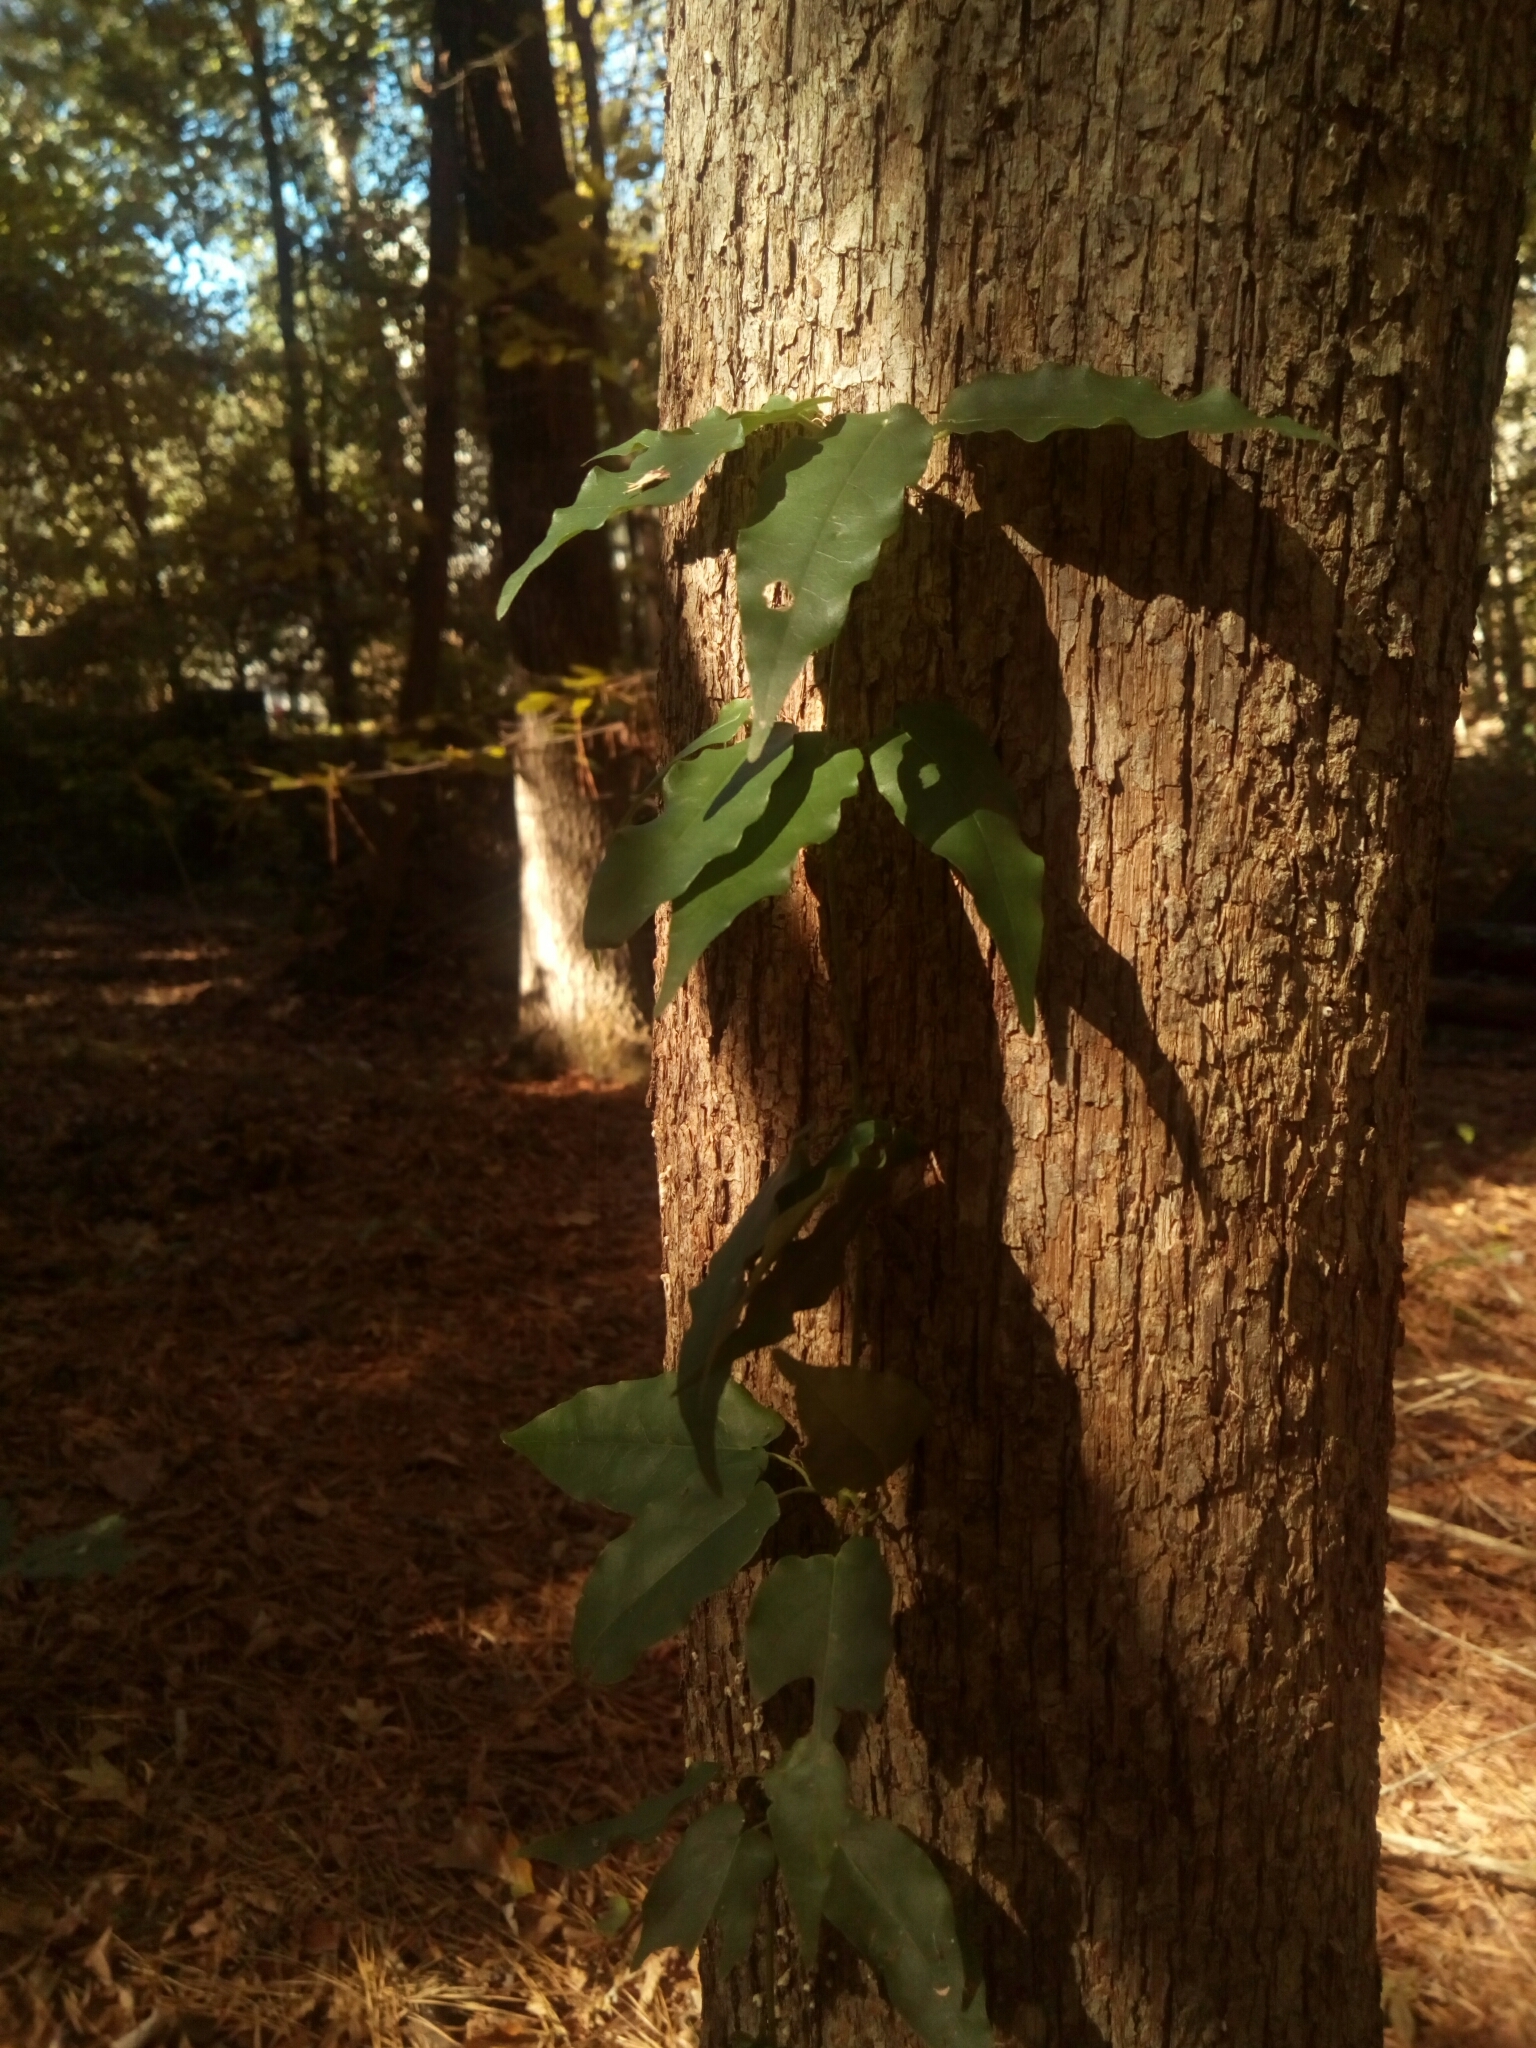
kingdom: Plantae
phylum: Tracheophyta
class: Magnoliopsida
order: Lamiales
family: Bignoniaceae
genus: Bignonia
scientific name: Bignonia capreolata
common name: Crossvine
